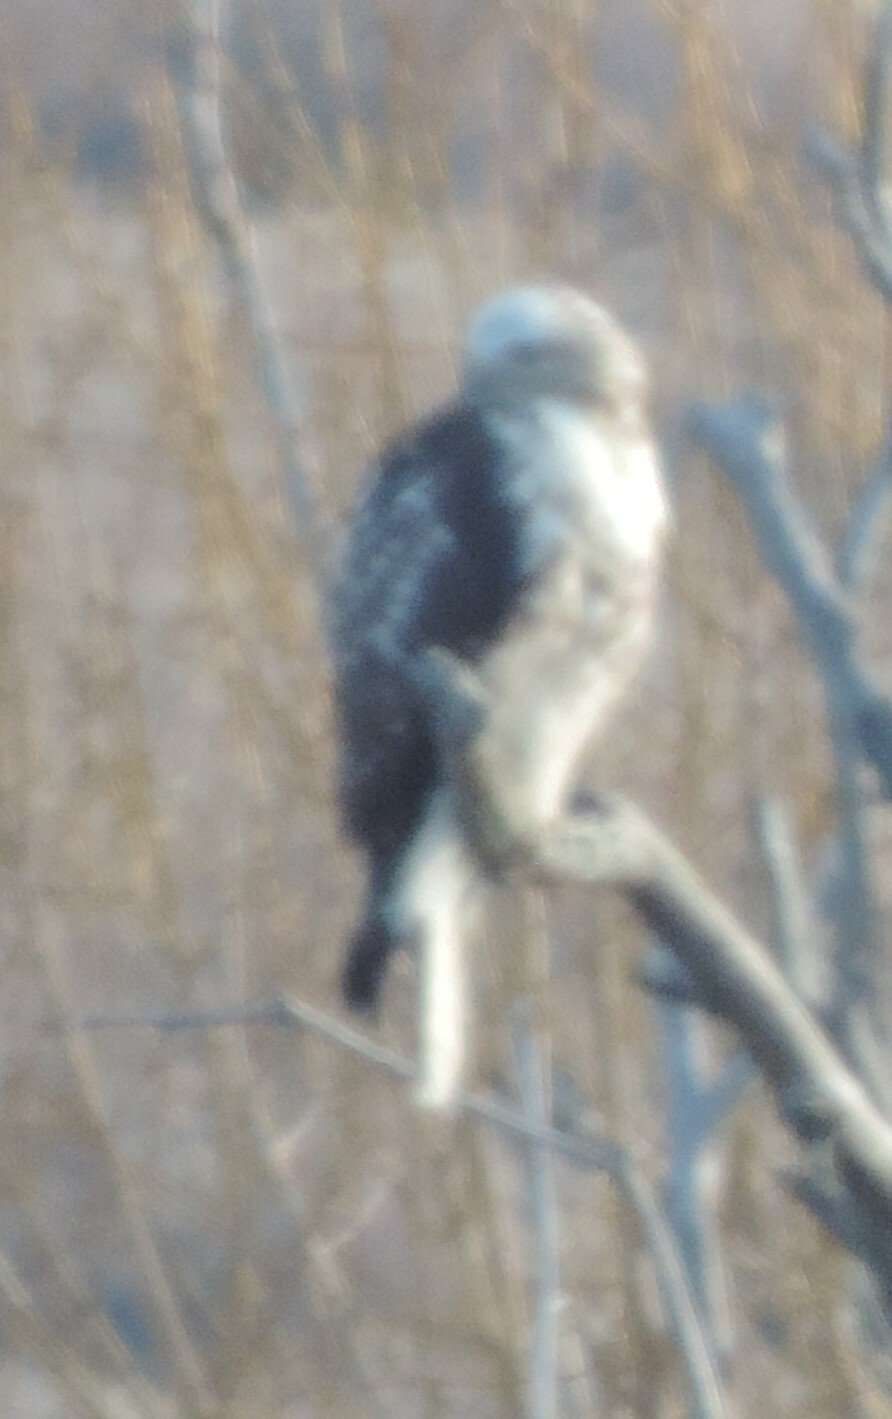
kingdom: Animalia
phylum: Chordata
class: Aves
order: Accipitriformes
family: Accipitridae
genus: Buteo
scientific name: Buteo jamaicensis
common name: Red-tailed hawk
